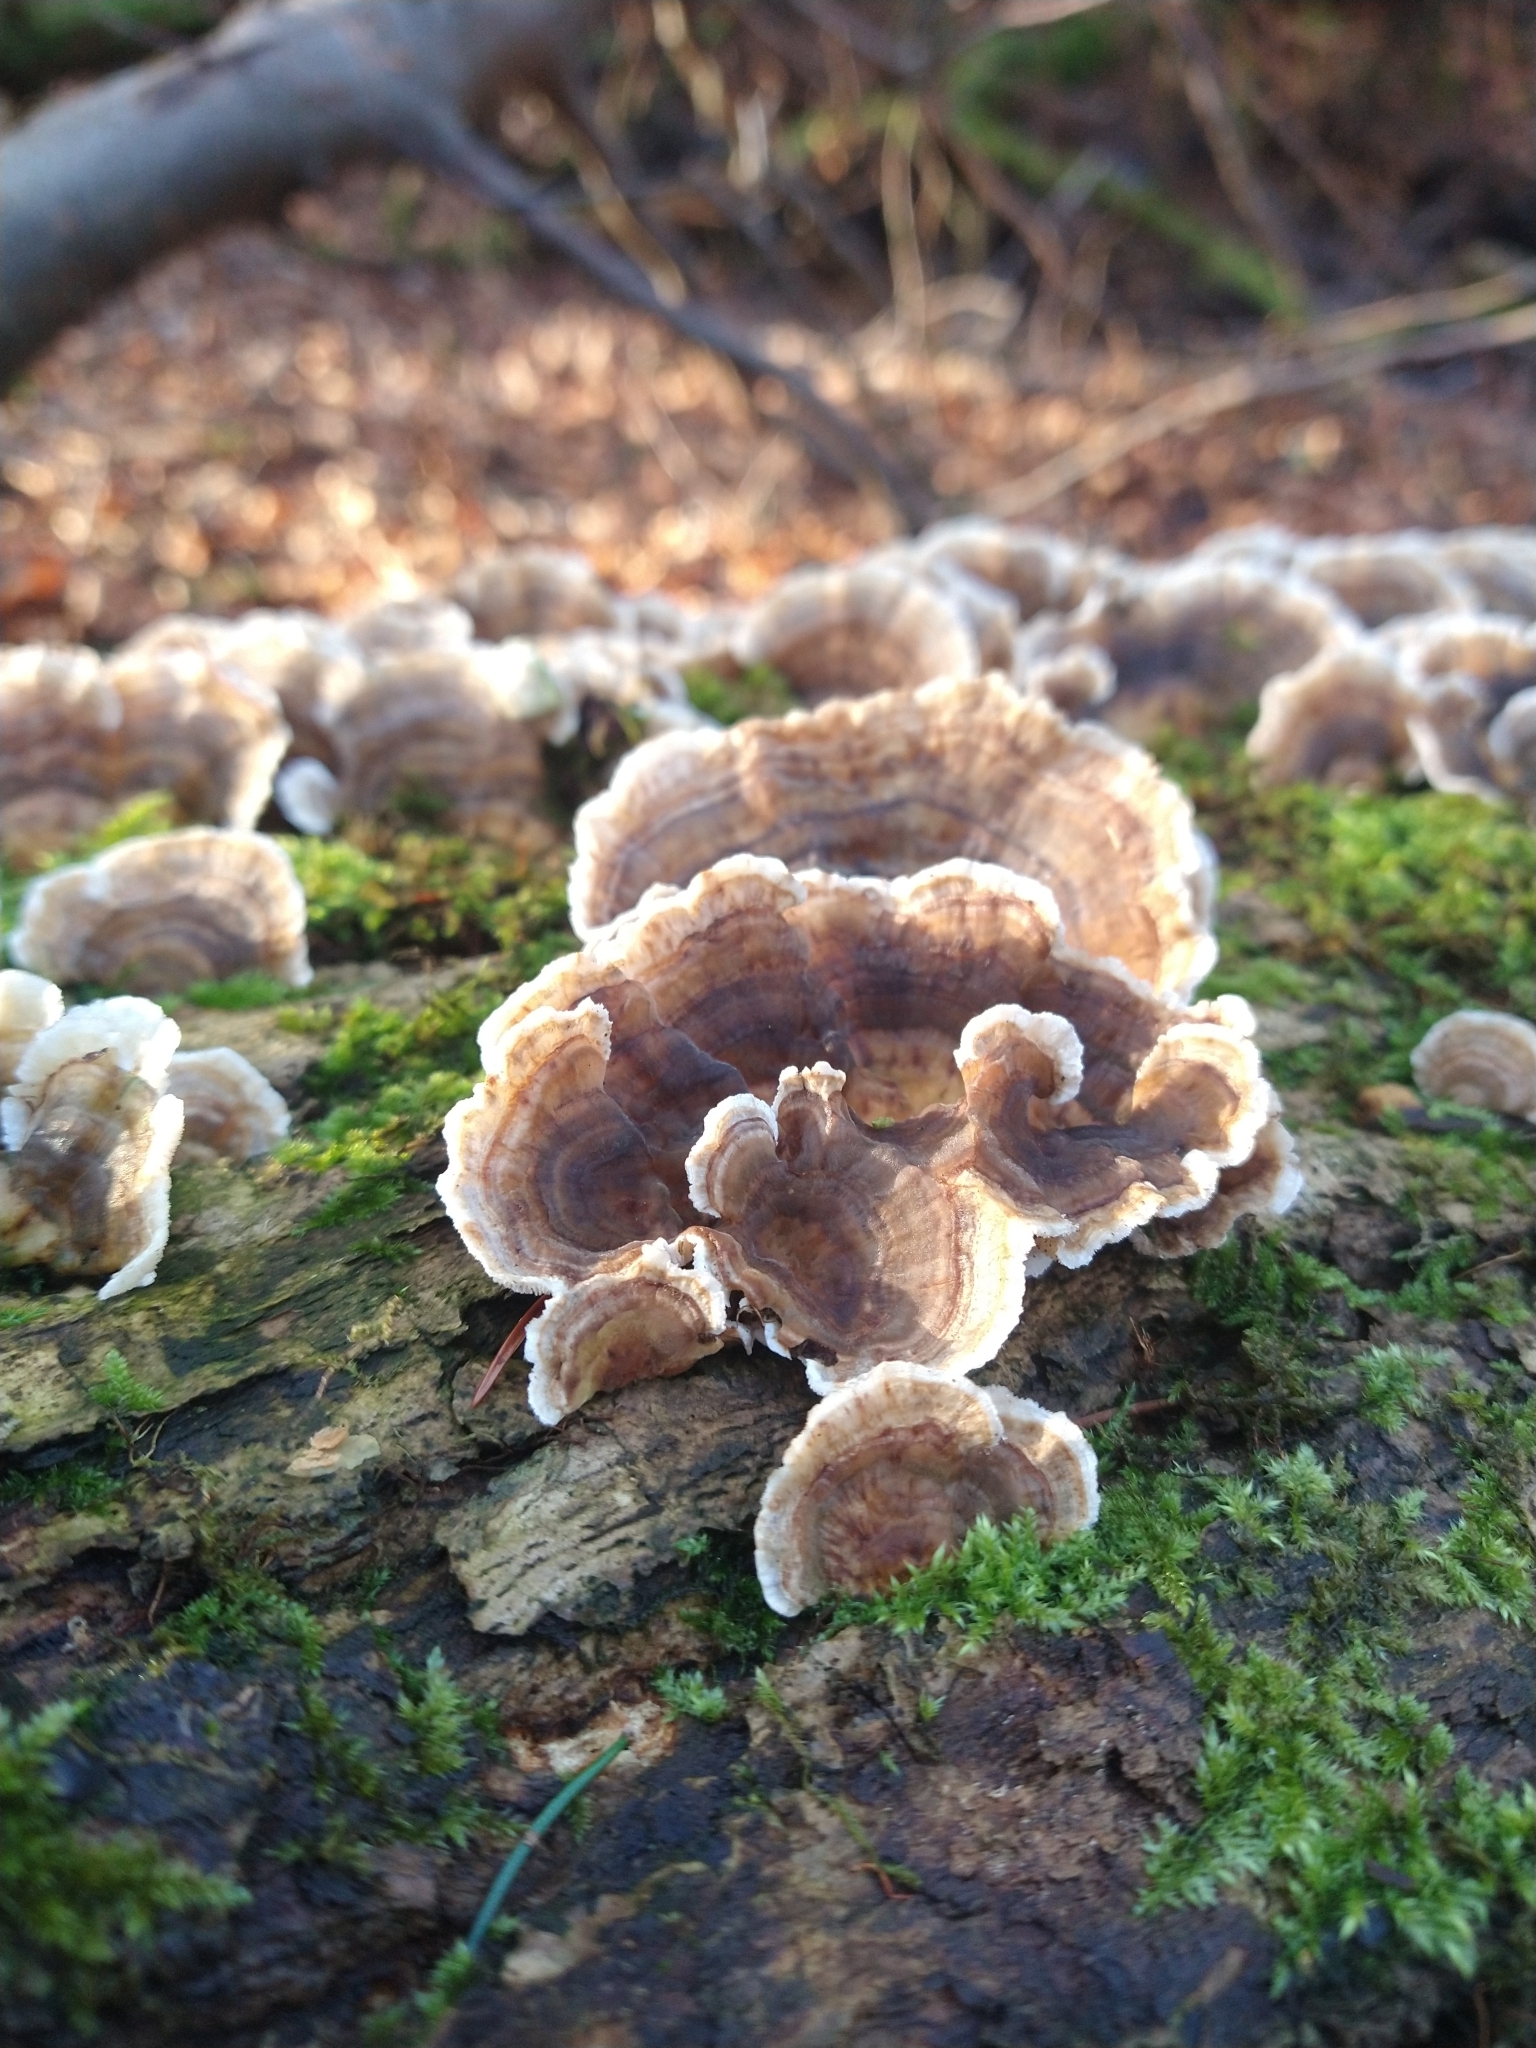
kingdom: Fungi
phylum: Basidiomycota
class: Agaricomycetes
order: Polyporales
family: Polyporaceae
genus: Trametes
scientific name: Trametes versicolor
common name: Turkeytail
